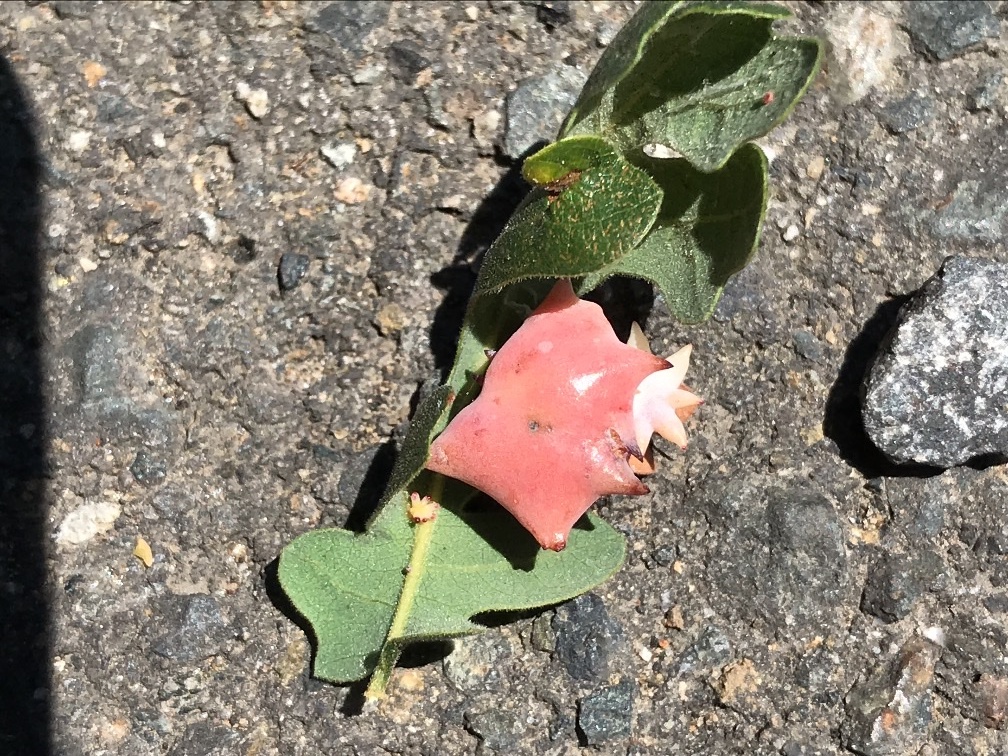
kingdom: Animalia
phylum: Arthropoda
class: Insecta
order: Hymenoptera
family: Cynipidae
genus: Cynips
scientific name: Cynips douglasi
